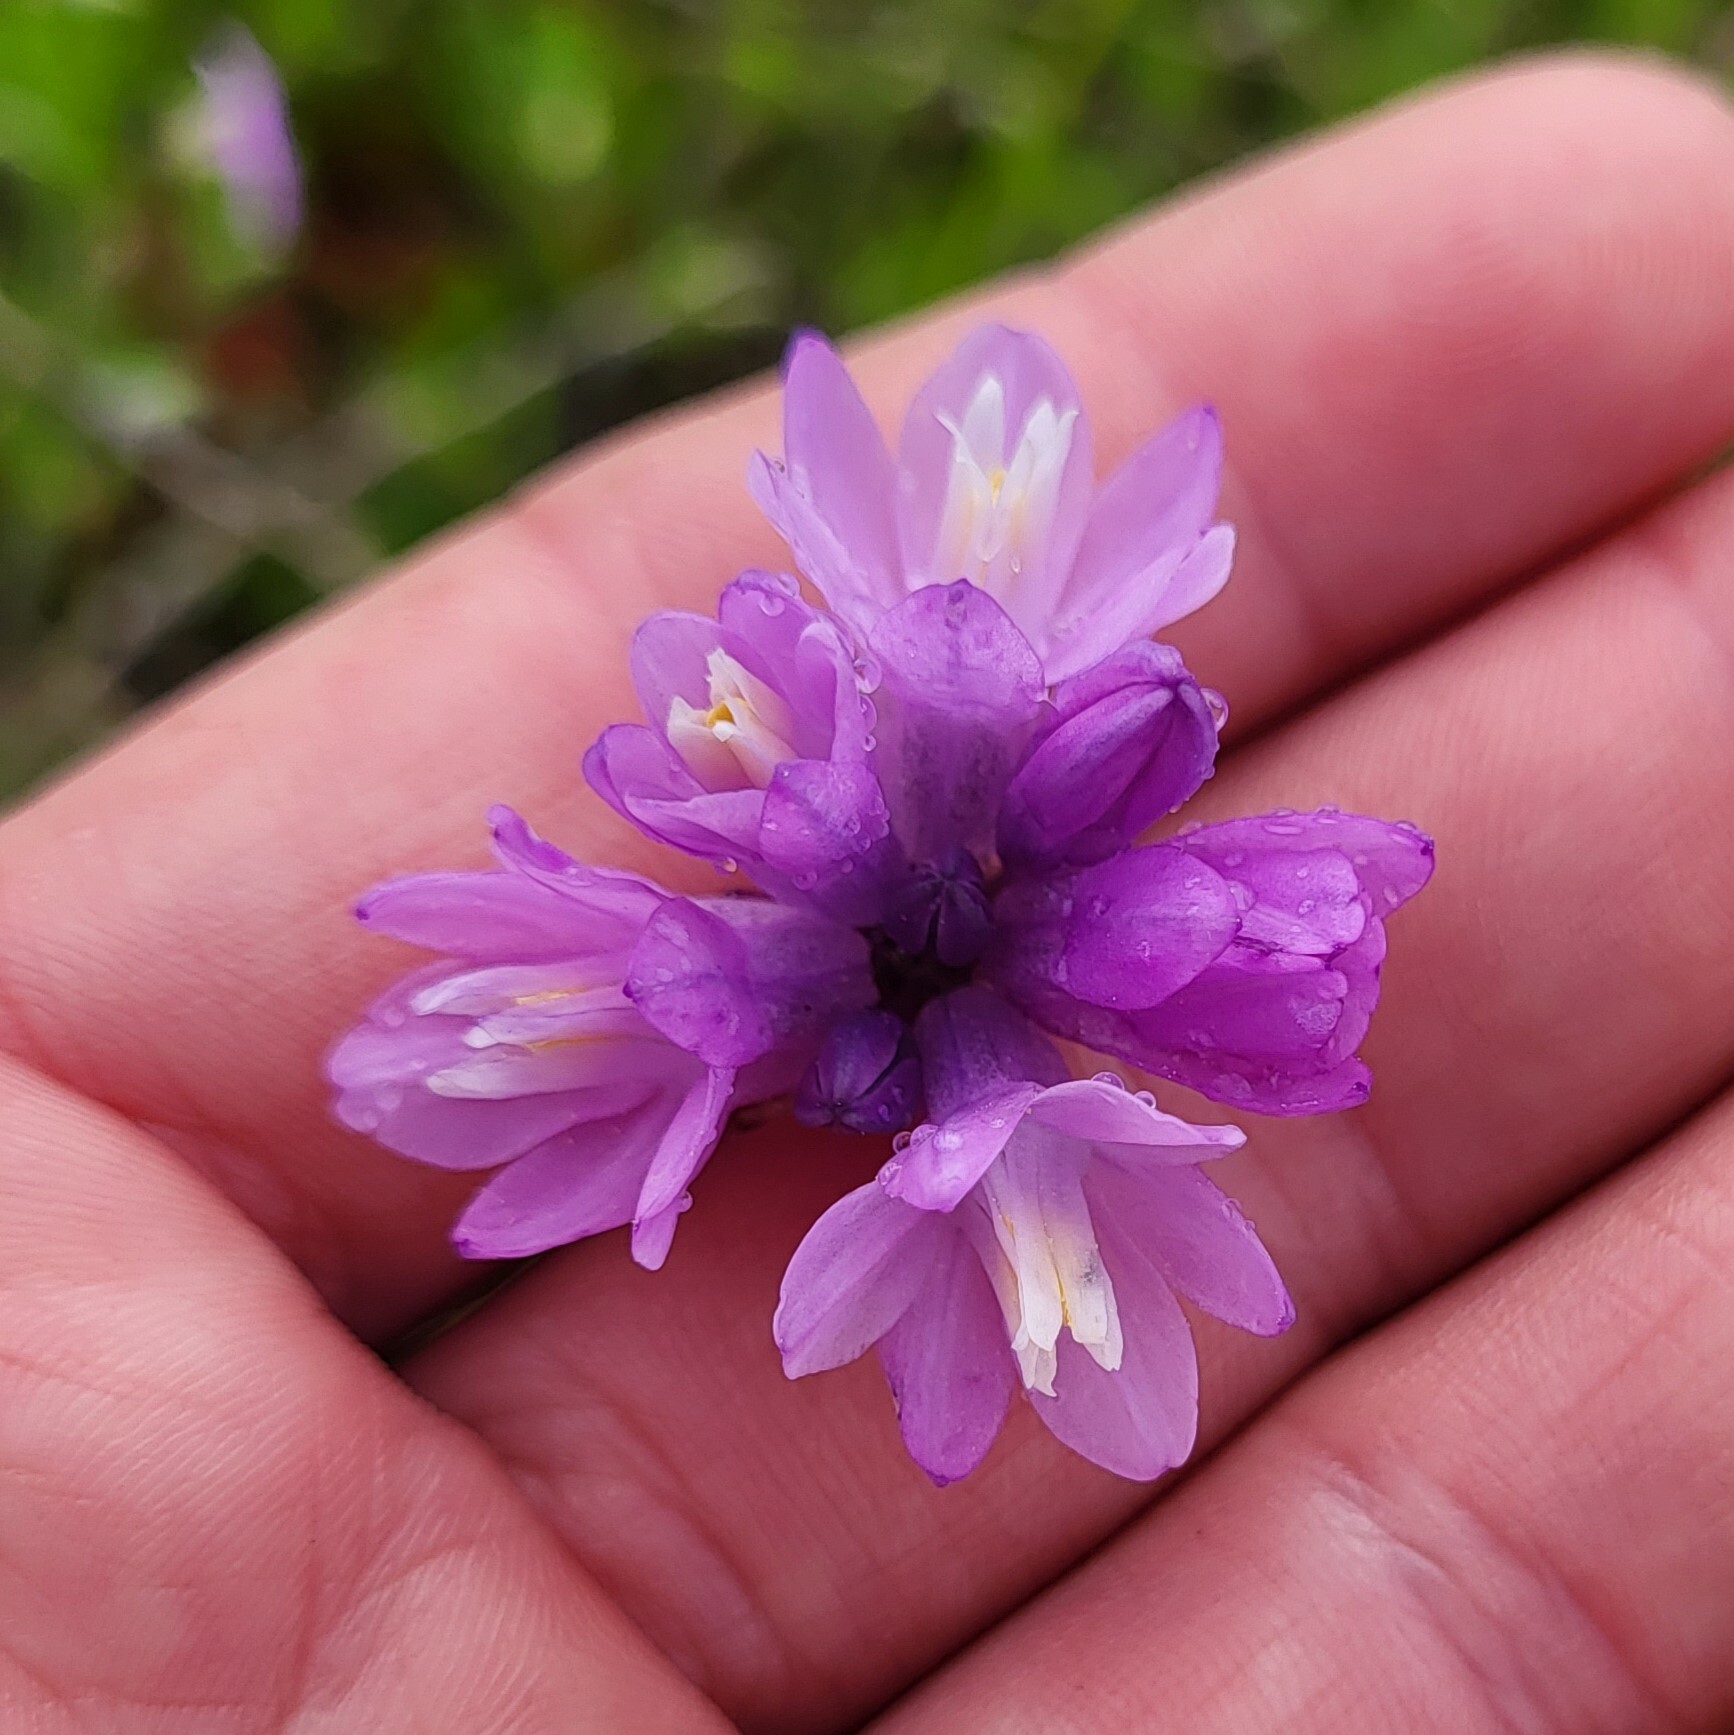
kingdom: Plantae
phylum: Tracheophyta
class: Liliopsida
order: Asparagales
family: Asparagaceae
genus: Dipterostemon
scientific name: Dipterostemon capitatus
